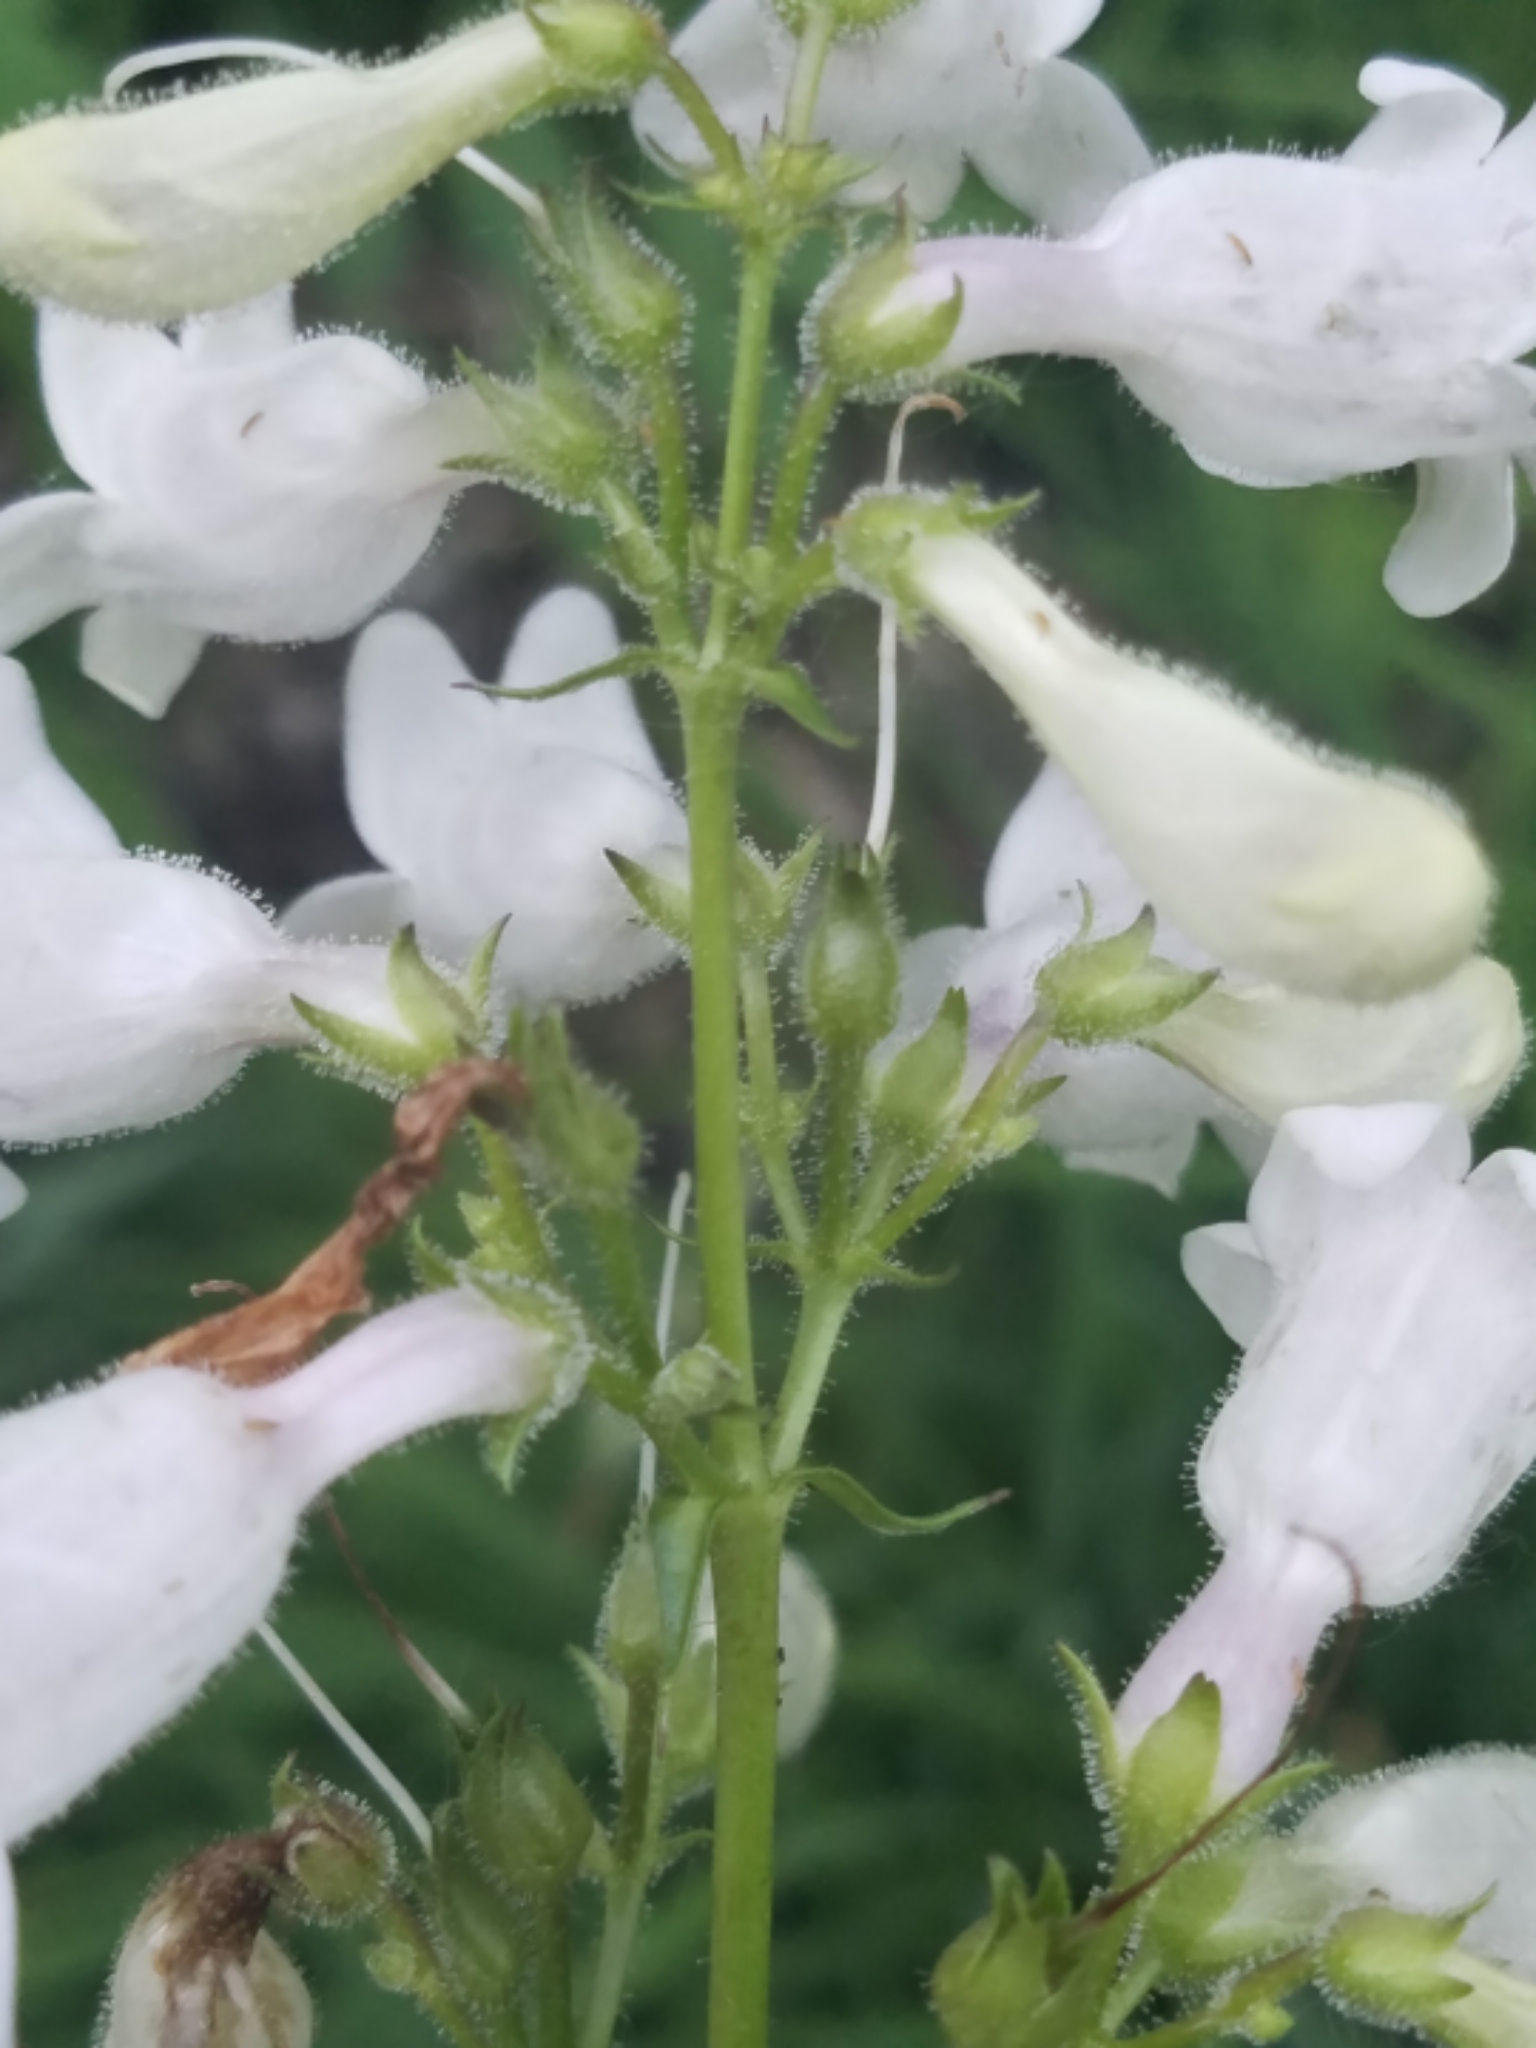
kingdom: Plantae
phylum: Tracheophyta
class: Magnoliopsida
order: Lamiales
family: Plantaginaceae
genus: Penstemon
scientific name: Penstemon digitalis
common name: Foxglove beardtongue
